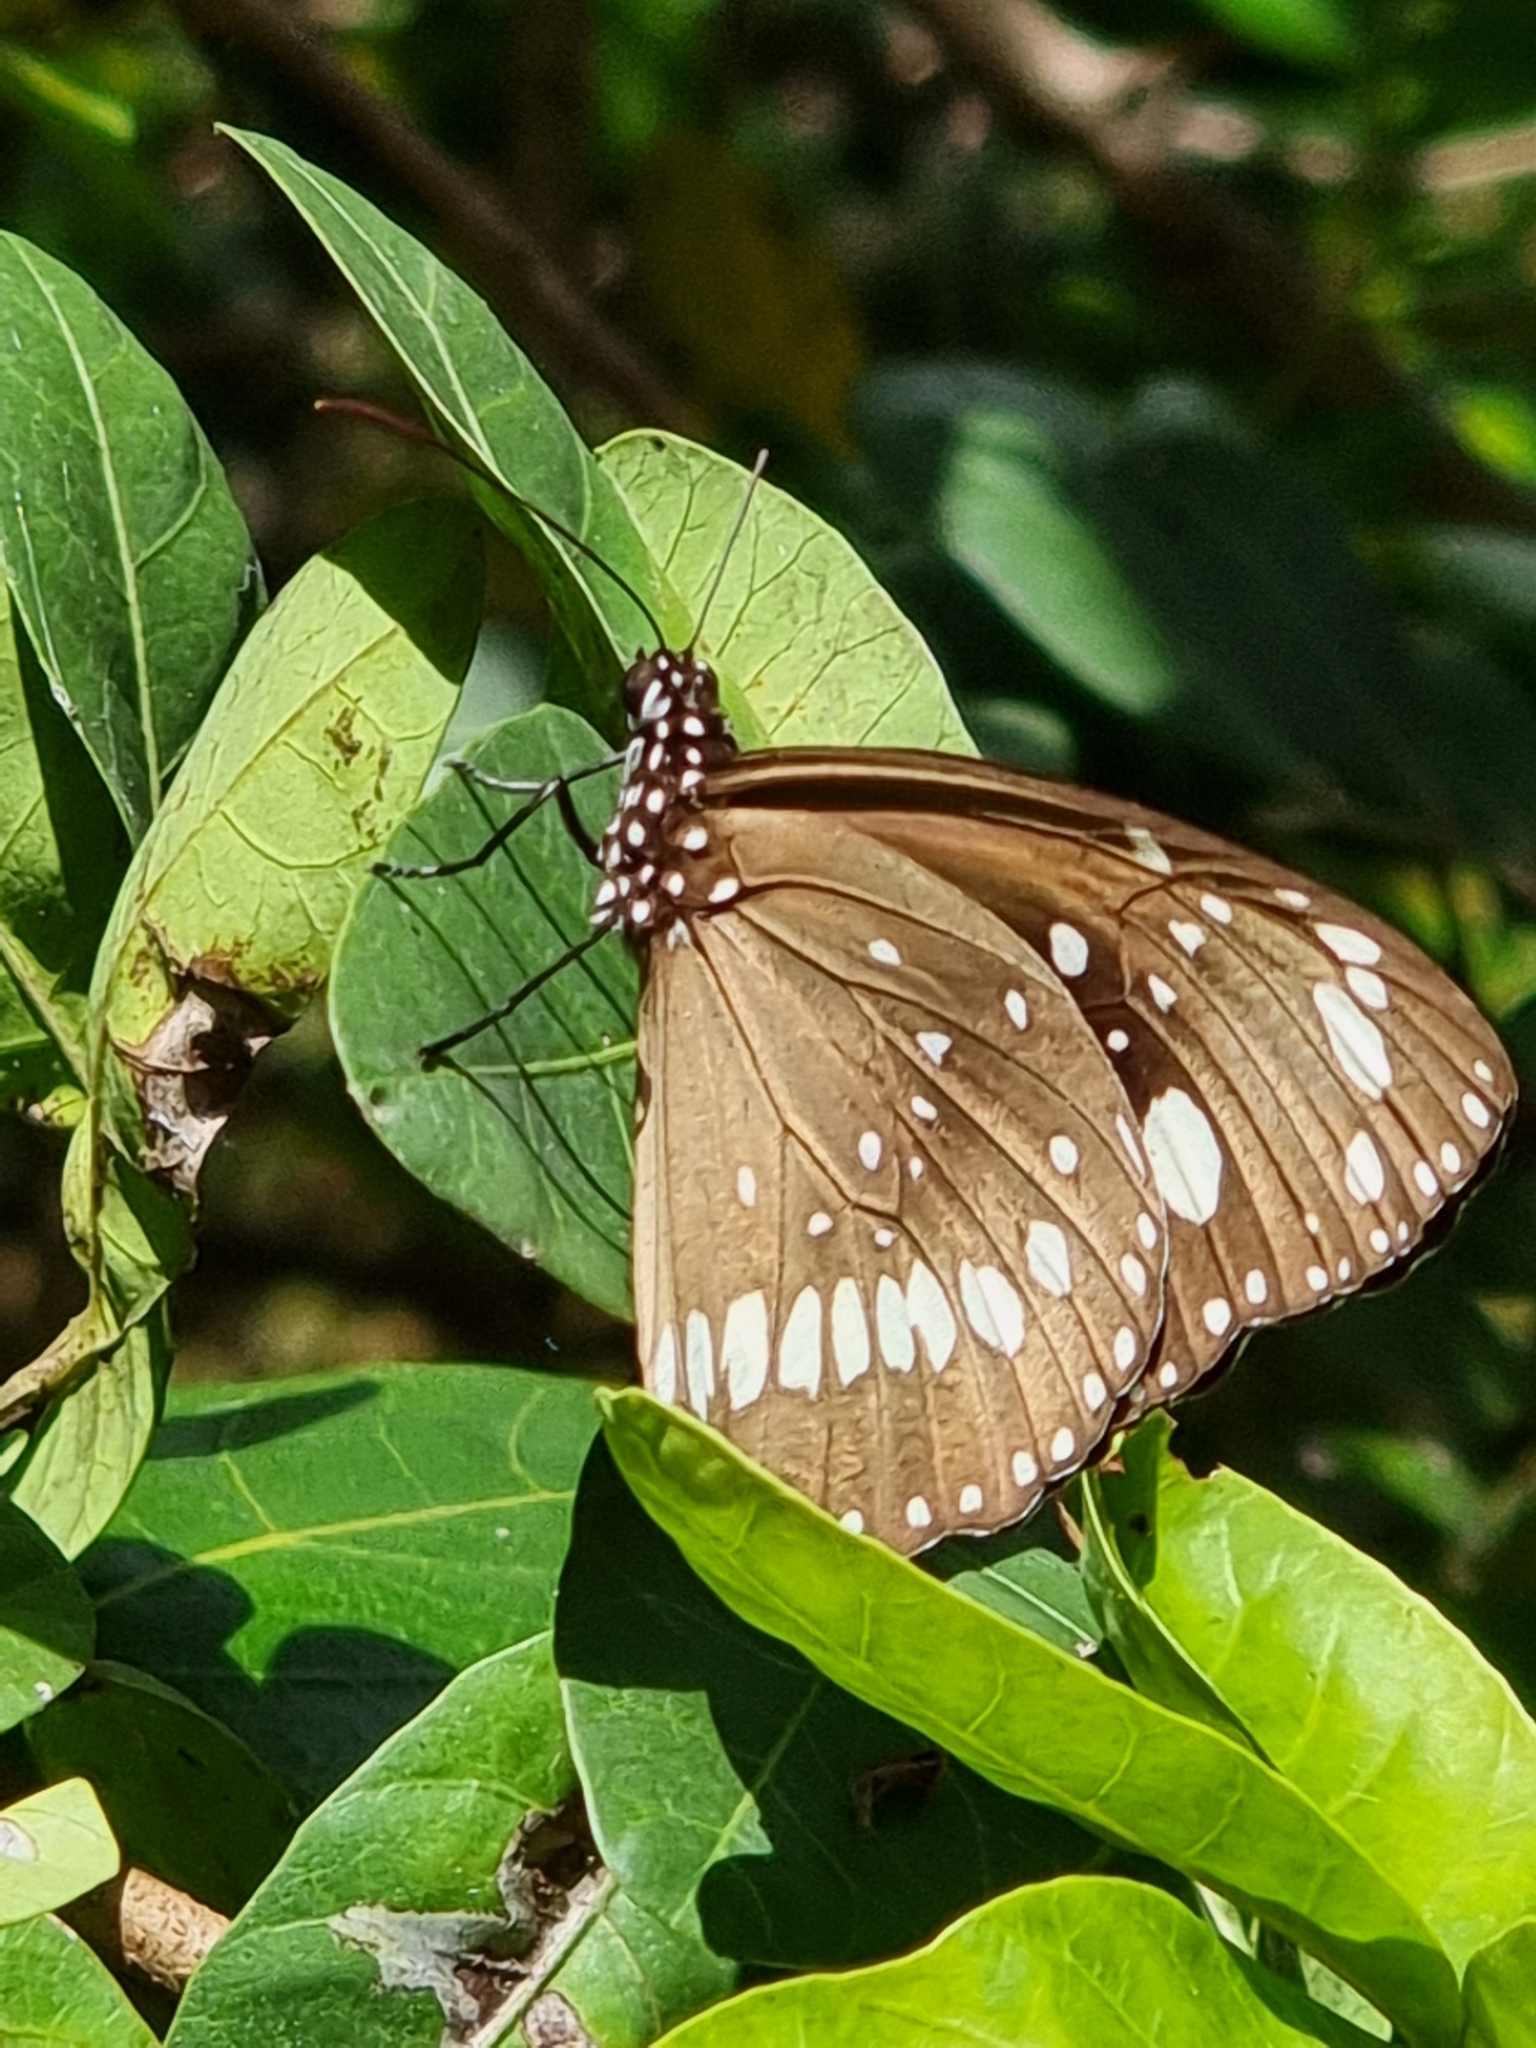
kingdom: Animalia
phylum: Arthropoda
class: Insecta
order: Lepidoptera
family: Nymphalidae
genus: Euploea
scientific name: Euploea core
